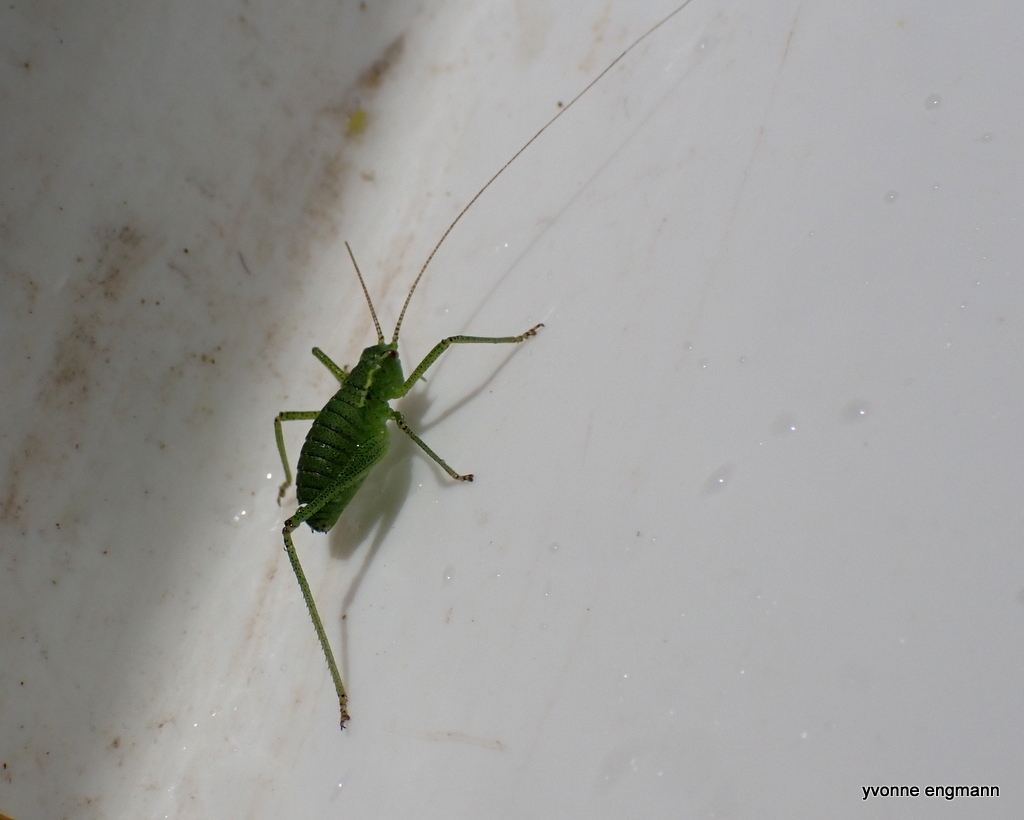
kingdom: Animalia
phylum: Arthropoda
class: Insecta
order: Orthoptera
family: Tettigoniidae
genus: Leptophyes
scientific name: Leptophyes punctatissima
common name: Speckled bush-cricket
